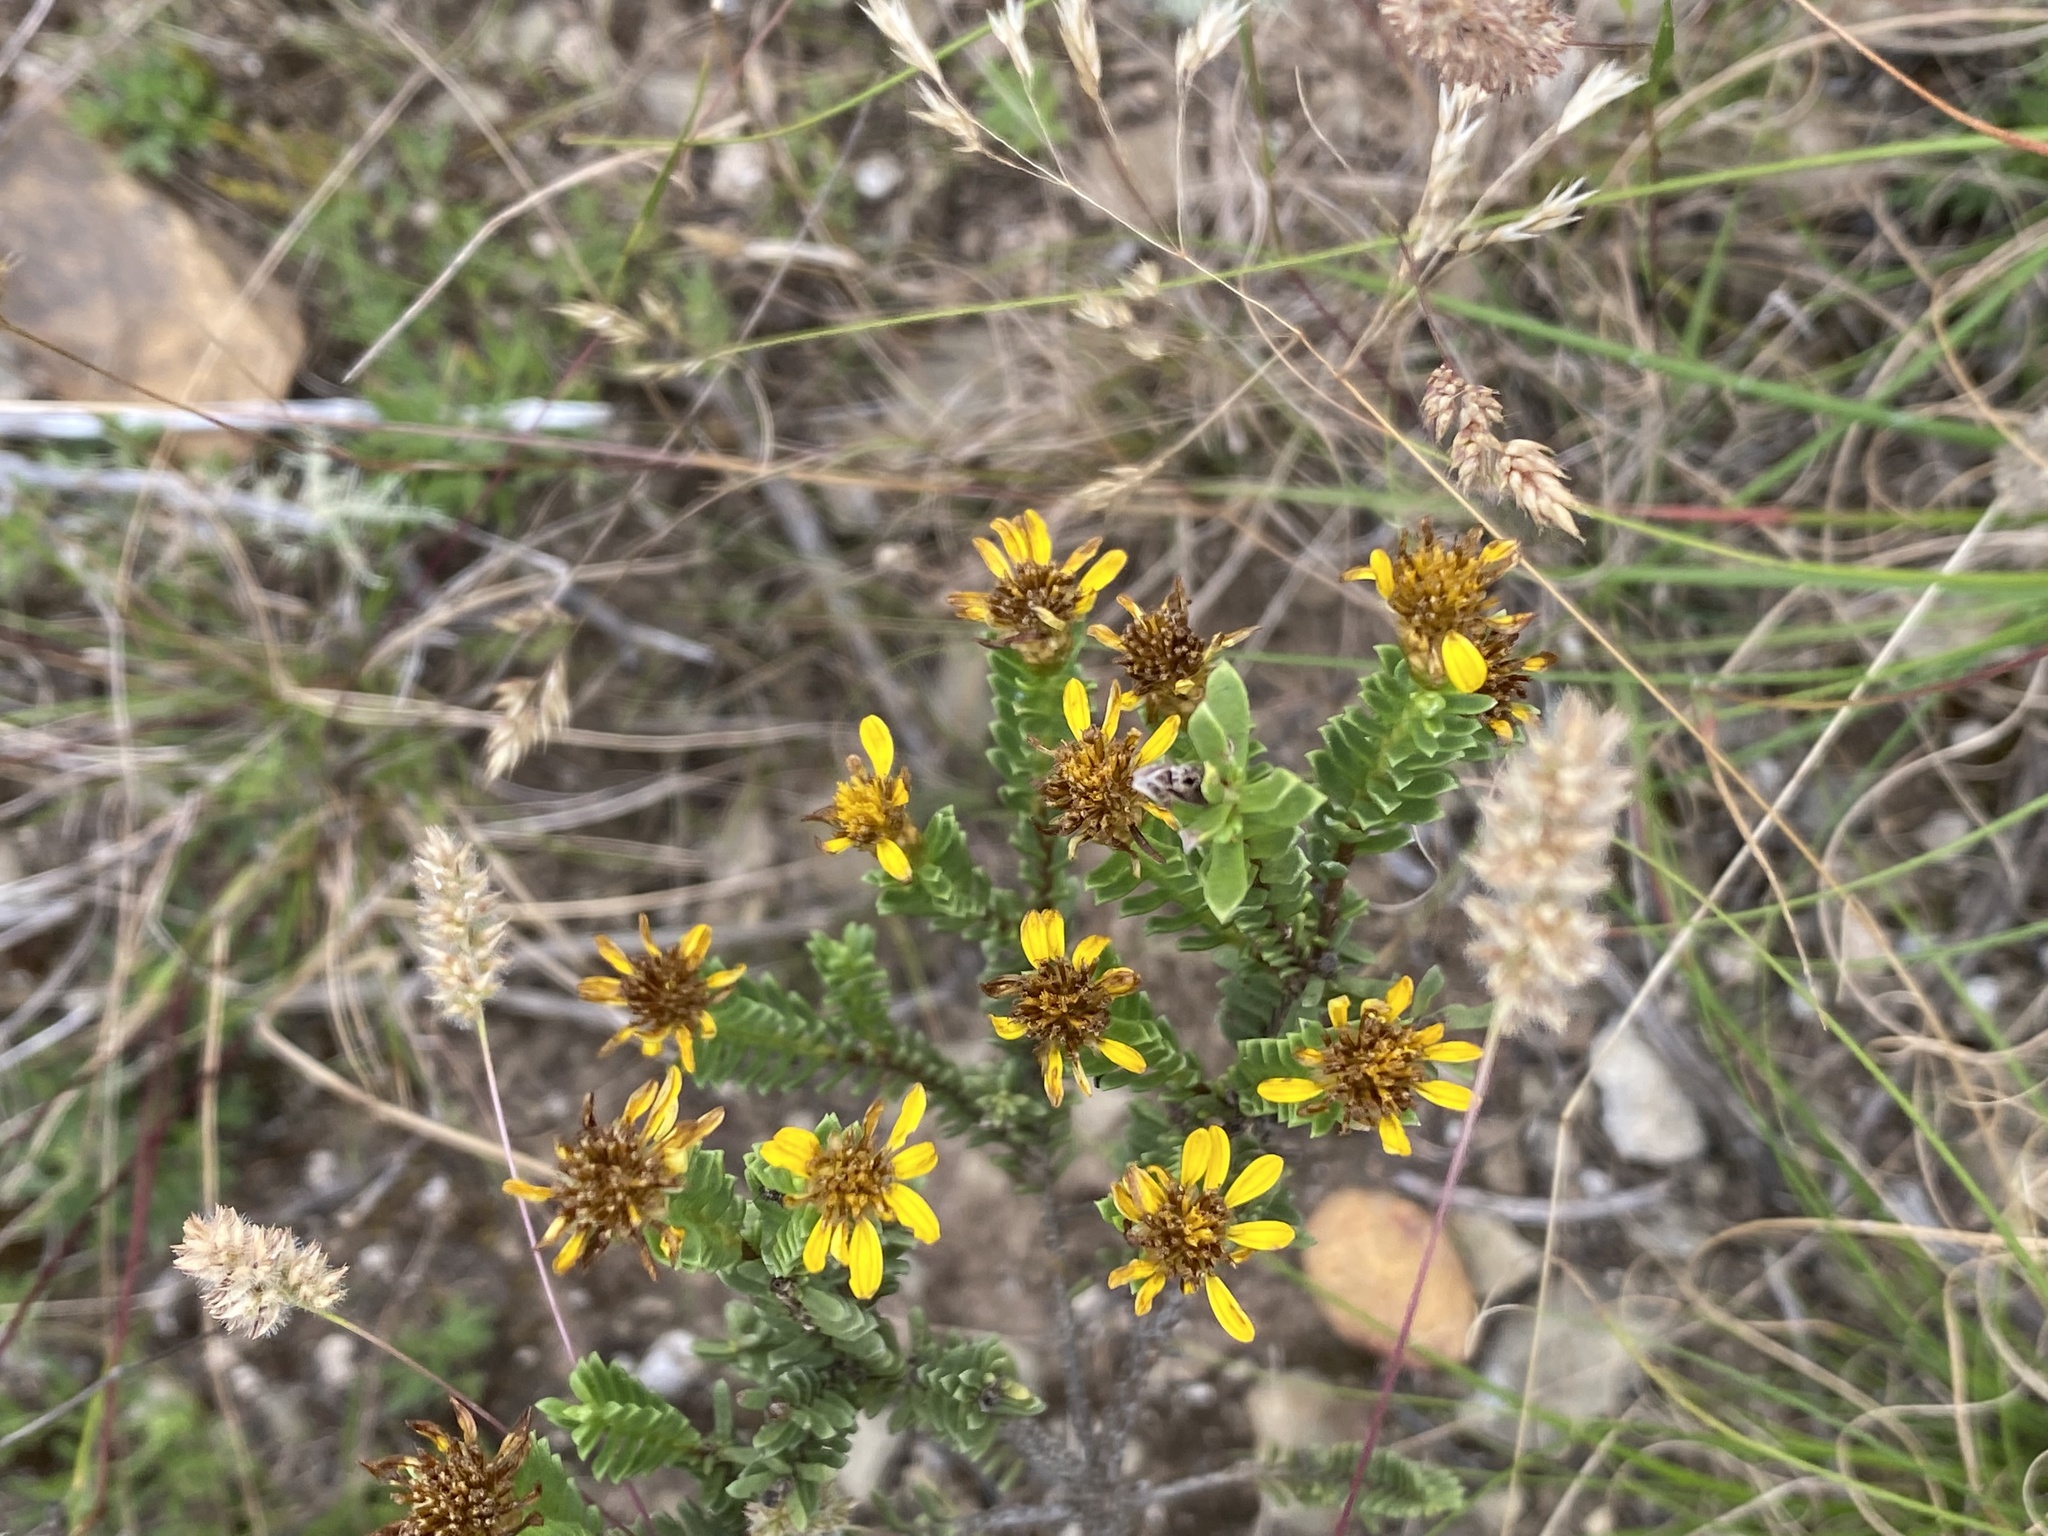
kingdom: Plantae
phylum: Tracheophyta
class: Magnoliopsida
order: Asterales
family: Asteraceae
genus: Oedera
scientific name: Oedera uniflora
